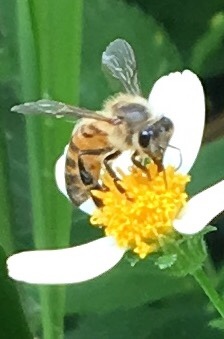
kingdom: Animalia
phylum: Arthropoda
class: Insecta
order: Hymenoptera
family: Apidae
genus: Apis
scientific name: Apis mellifera
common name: Honey bee
